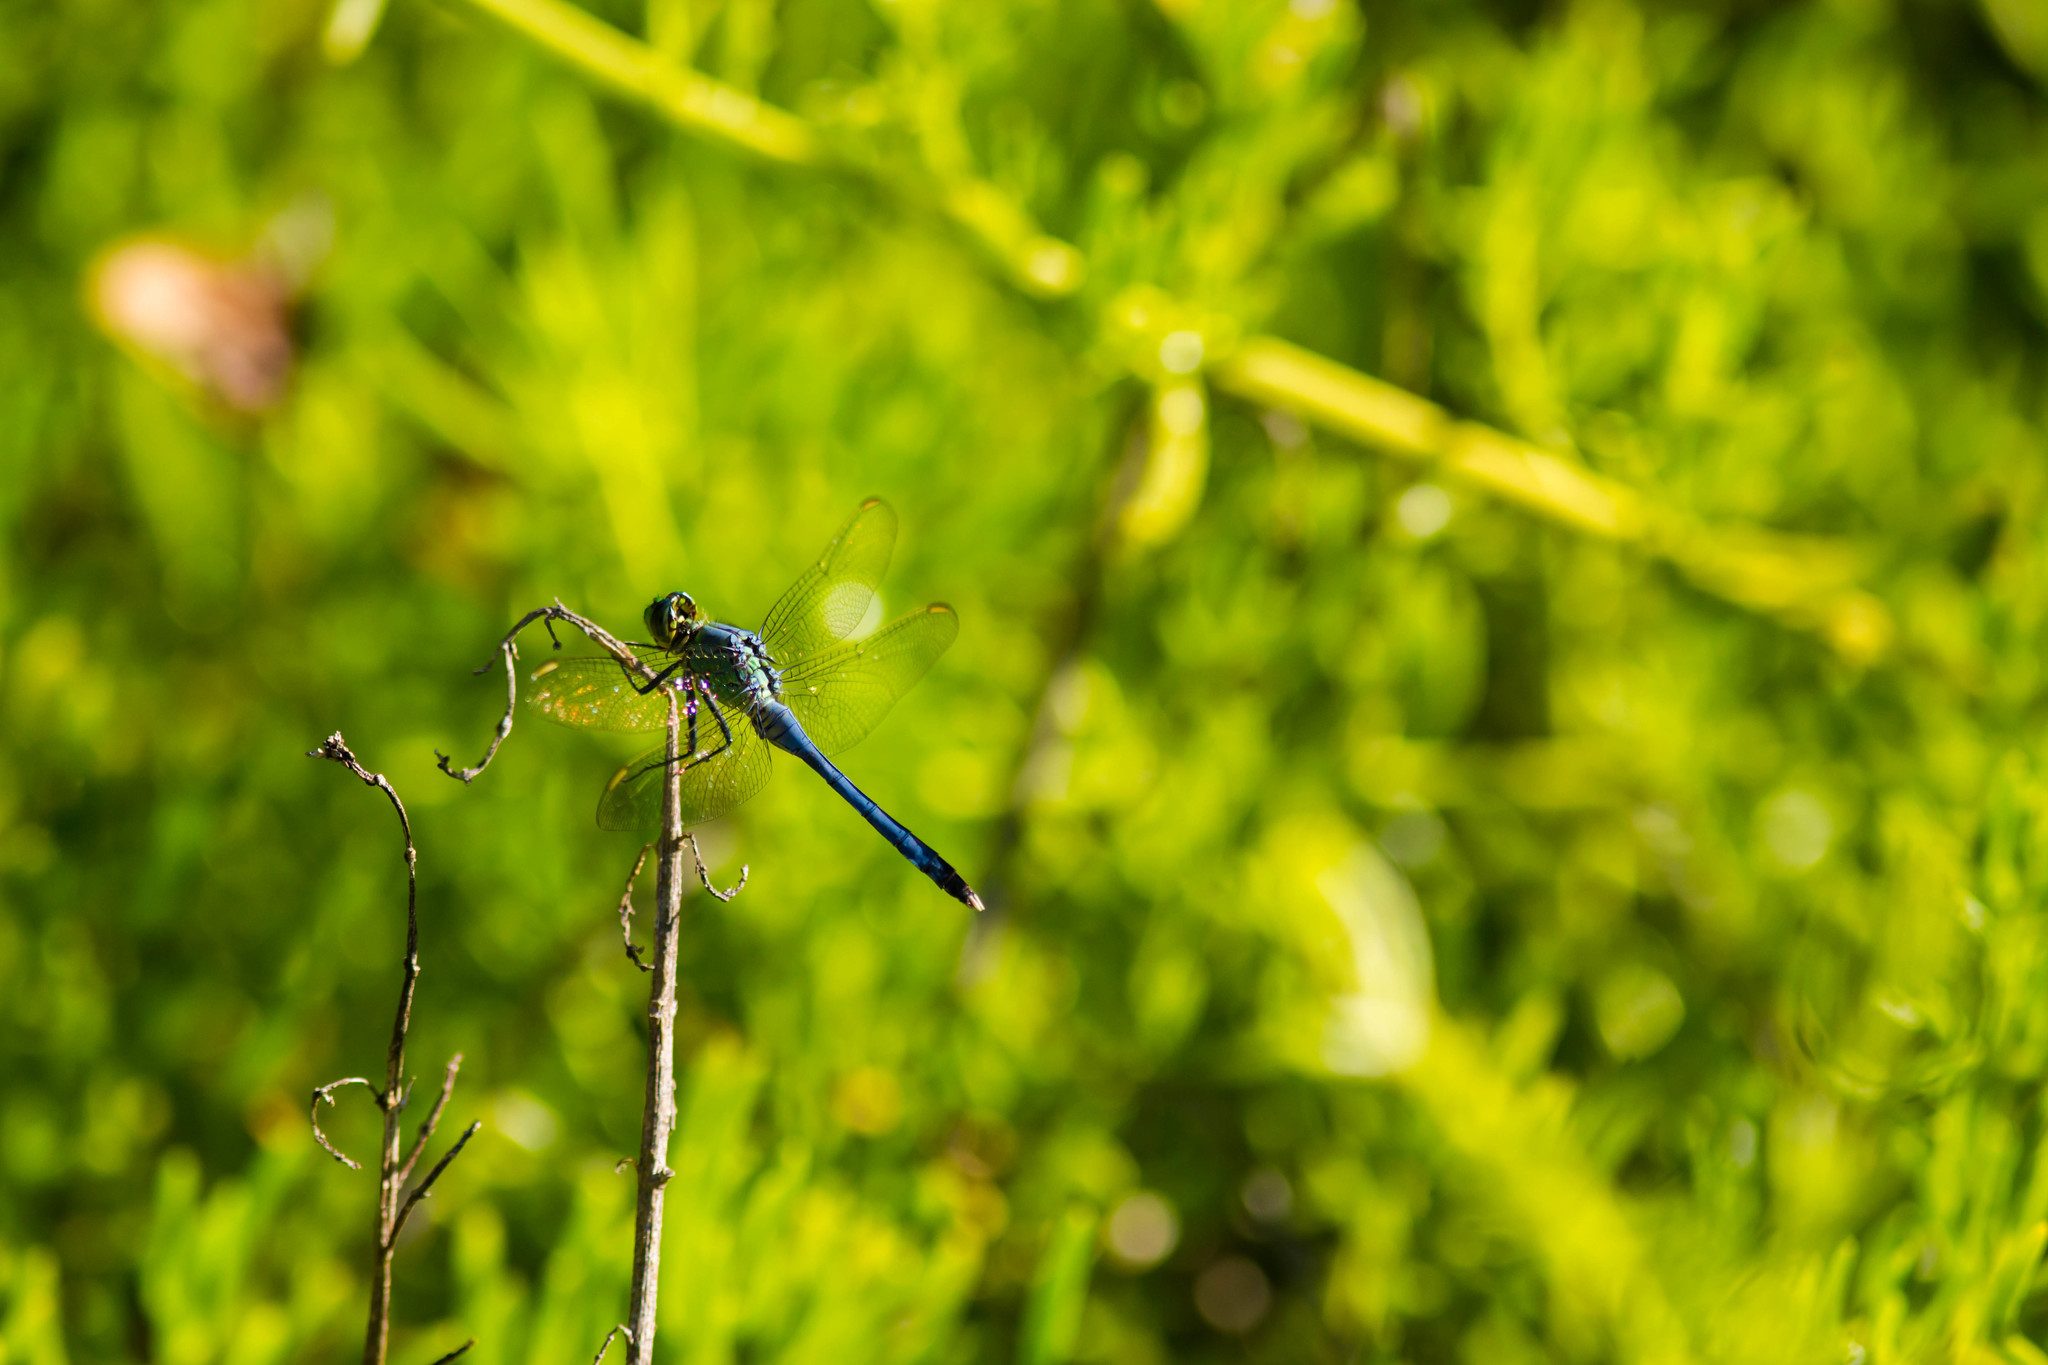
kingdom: Animalia
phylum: Arthropoda
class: Insecta
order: Odonata
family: Libellulidae
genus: Erythemis
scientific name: Erythemis simplicicollis
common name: Eastern pondhawk
